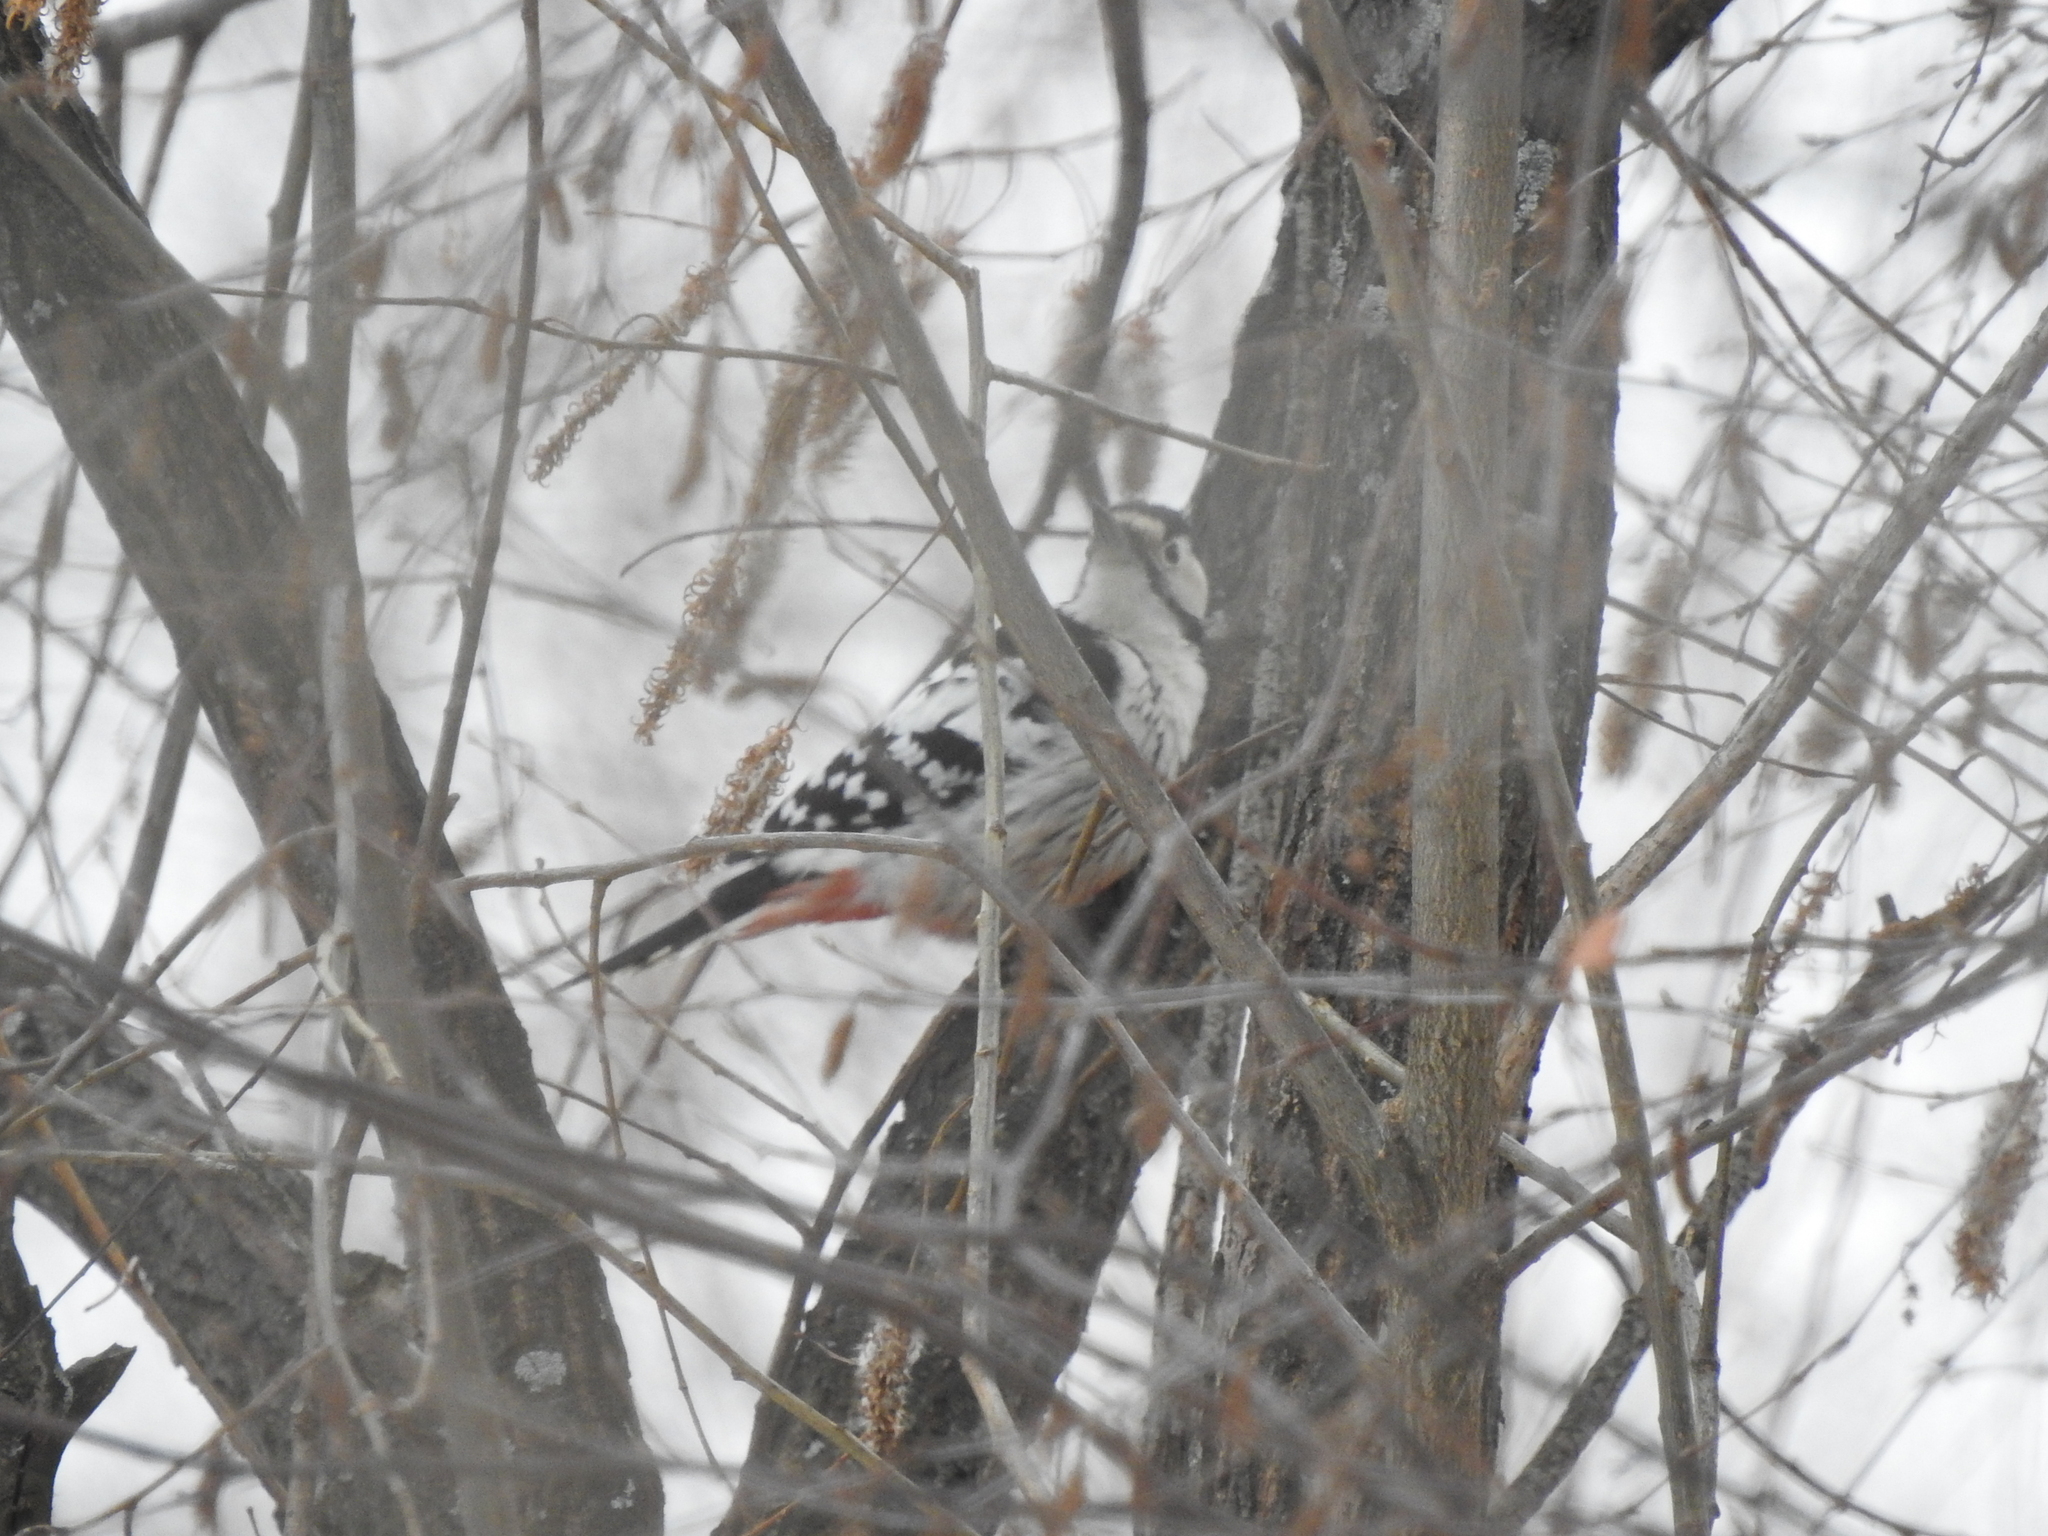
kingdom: Animalia
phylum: Chordata
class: Aves
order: Piciformes
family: Picidae
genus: Dendrocopos
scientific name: Dendrocopos leucotos
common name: White-backed woodpecker
